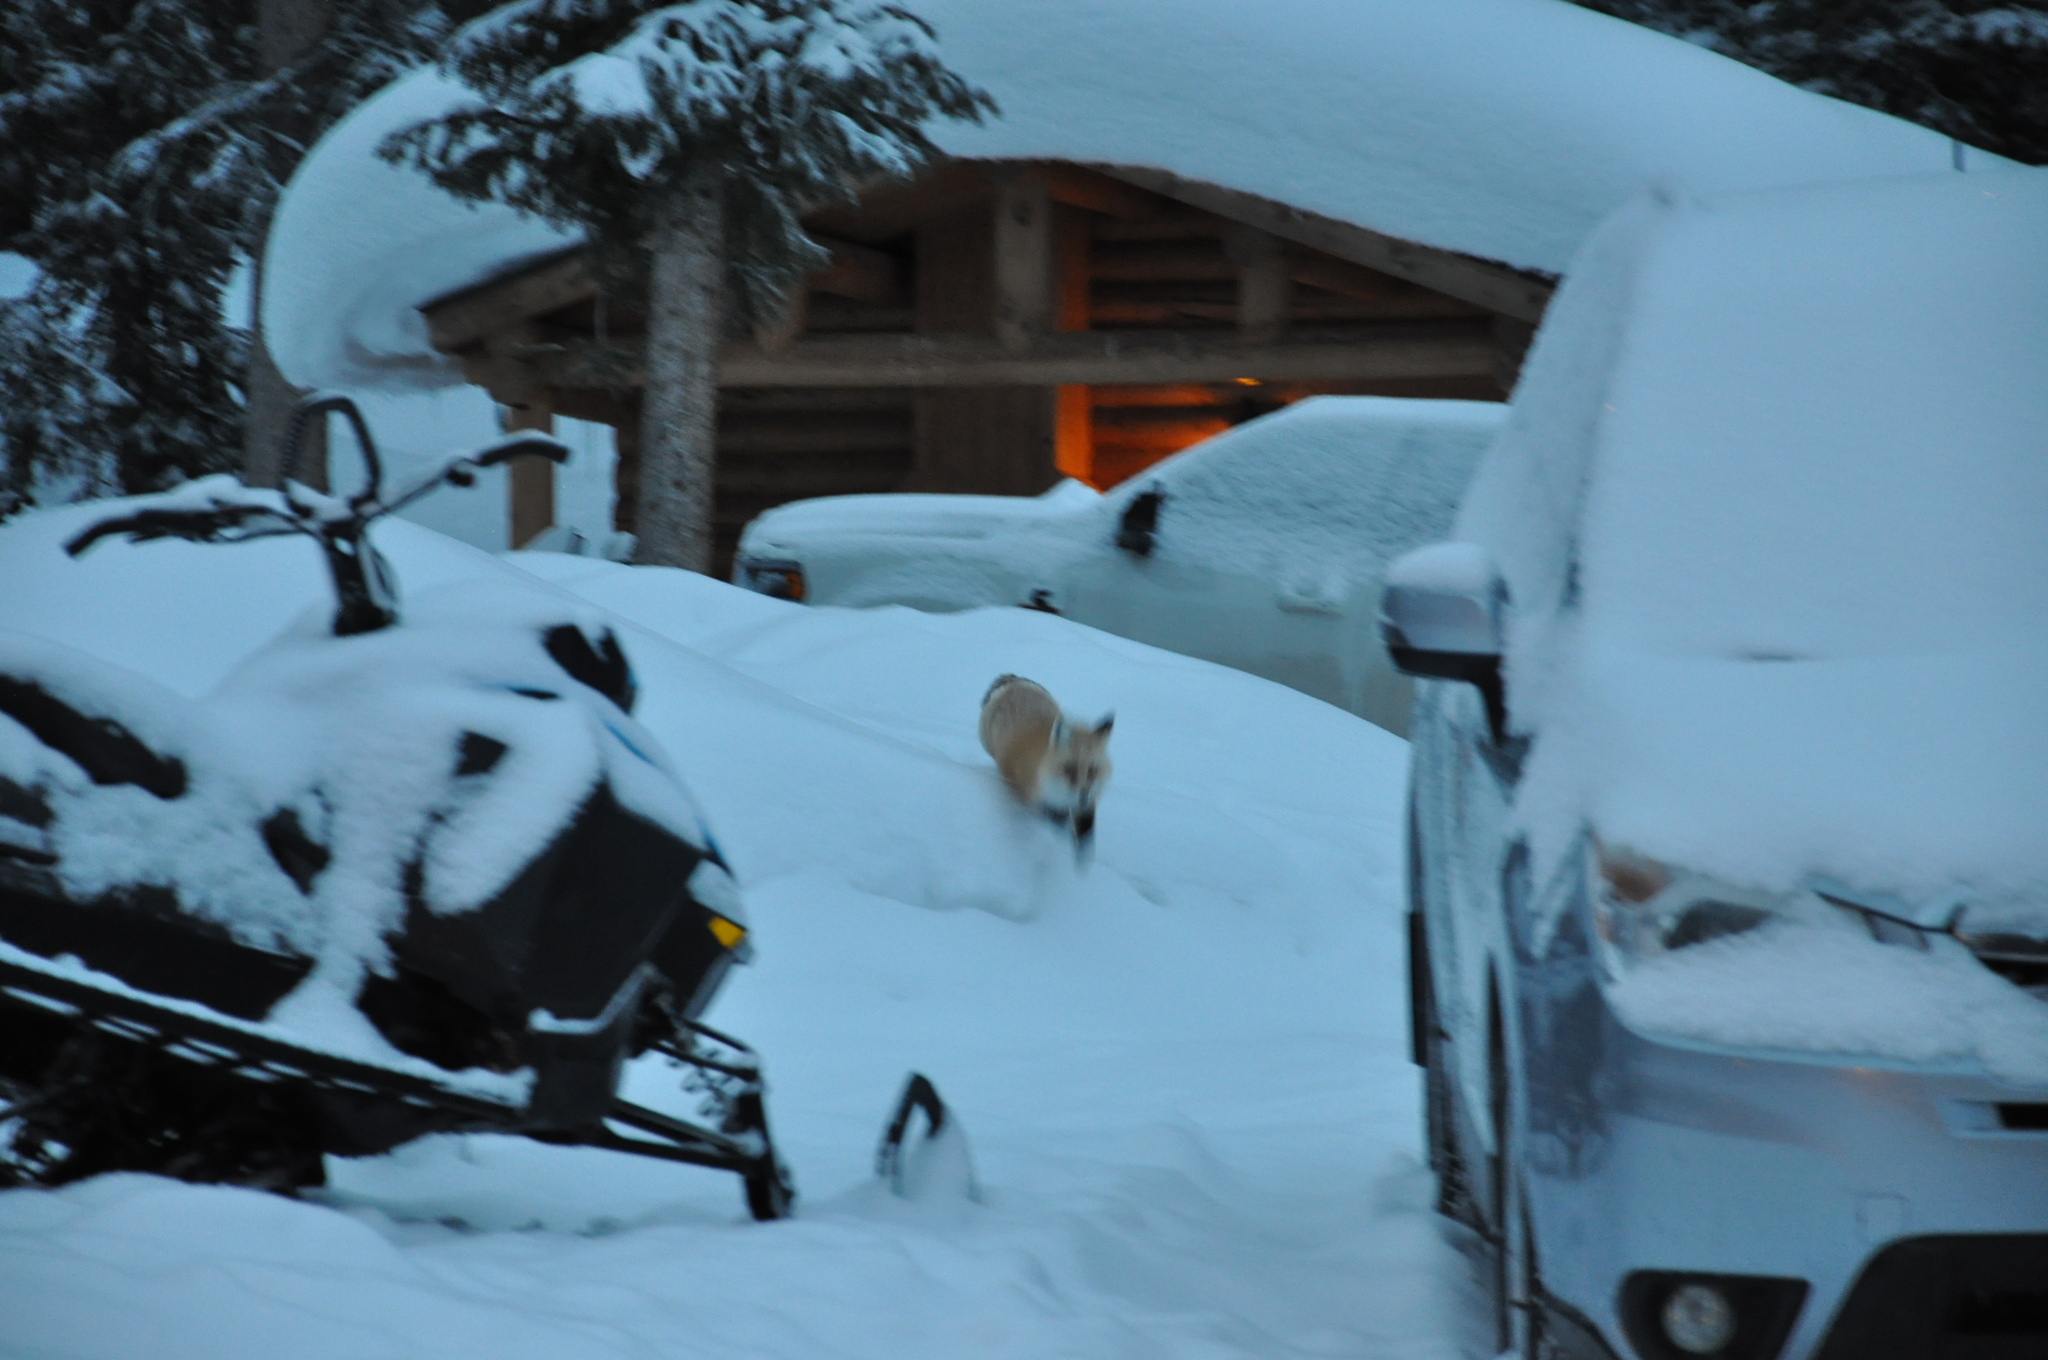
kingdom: Animalia
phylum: Chordata
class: Mammalia
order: Carnivora
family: Canidae
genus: Vulpes
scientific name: Vulpes vulpes
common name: Red fox
